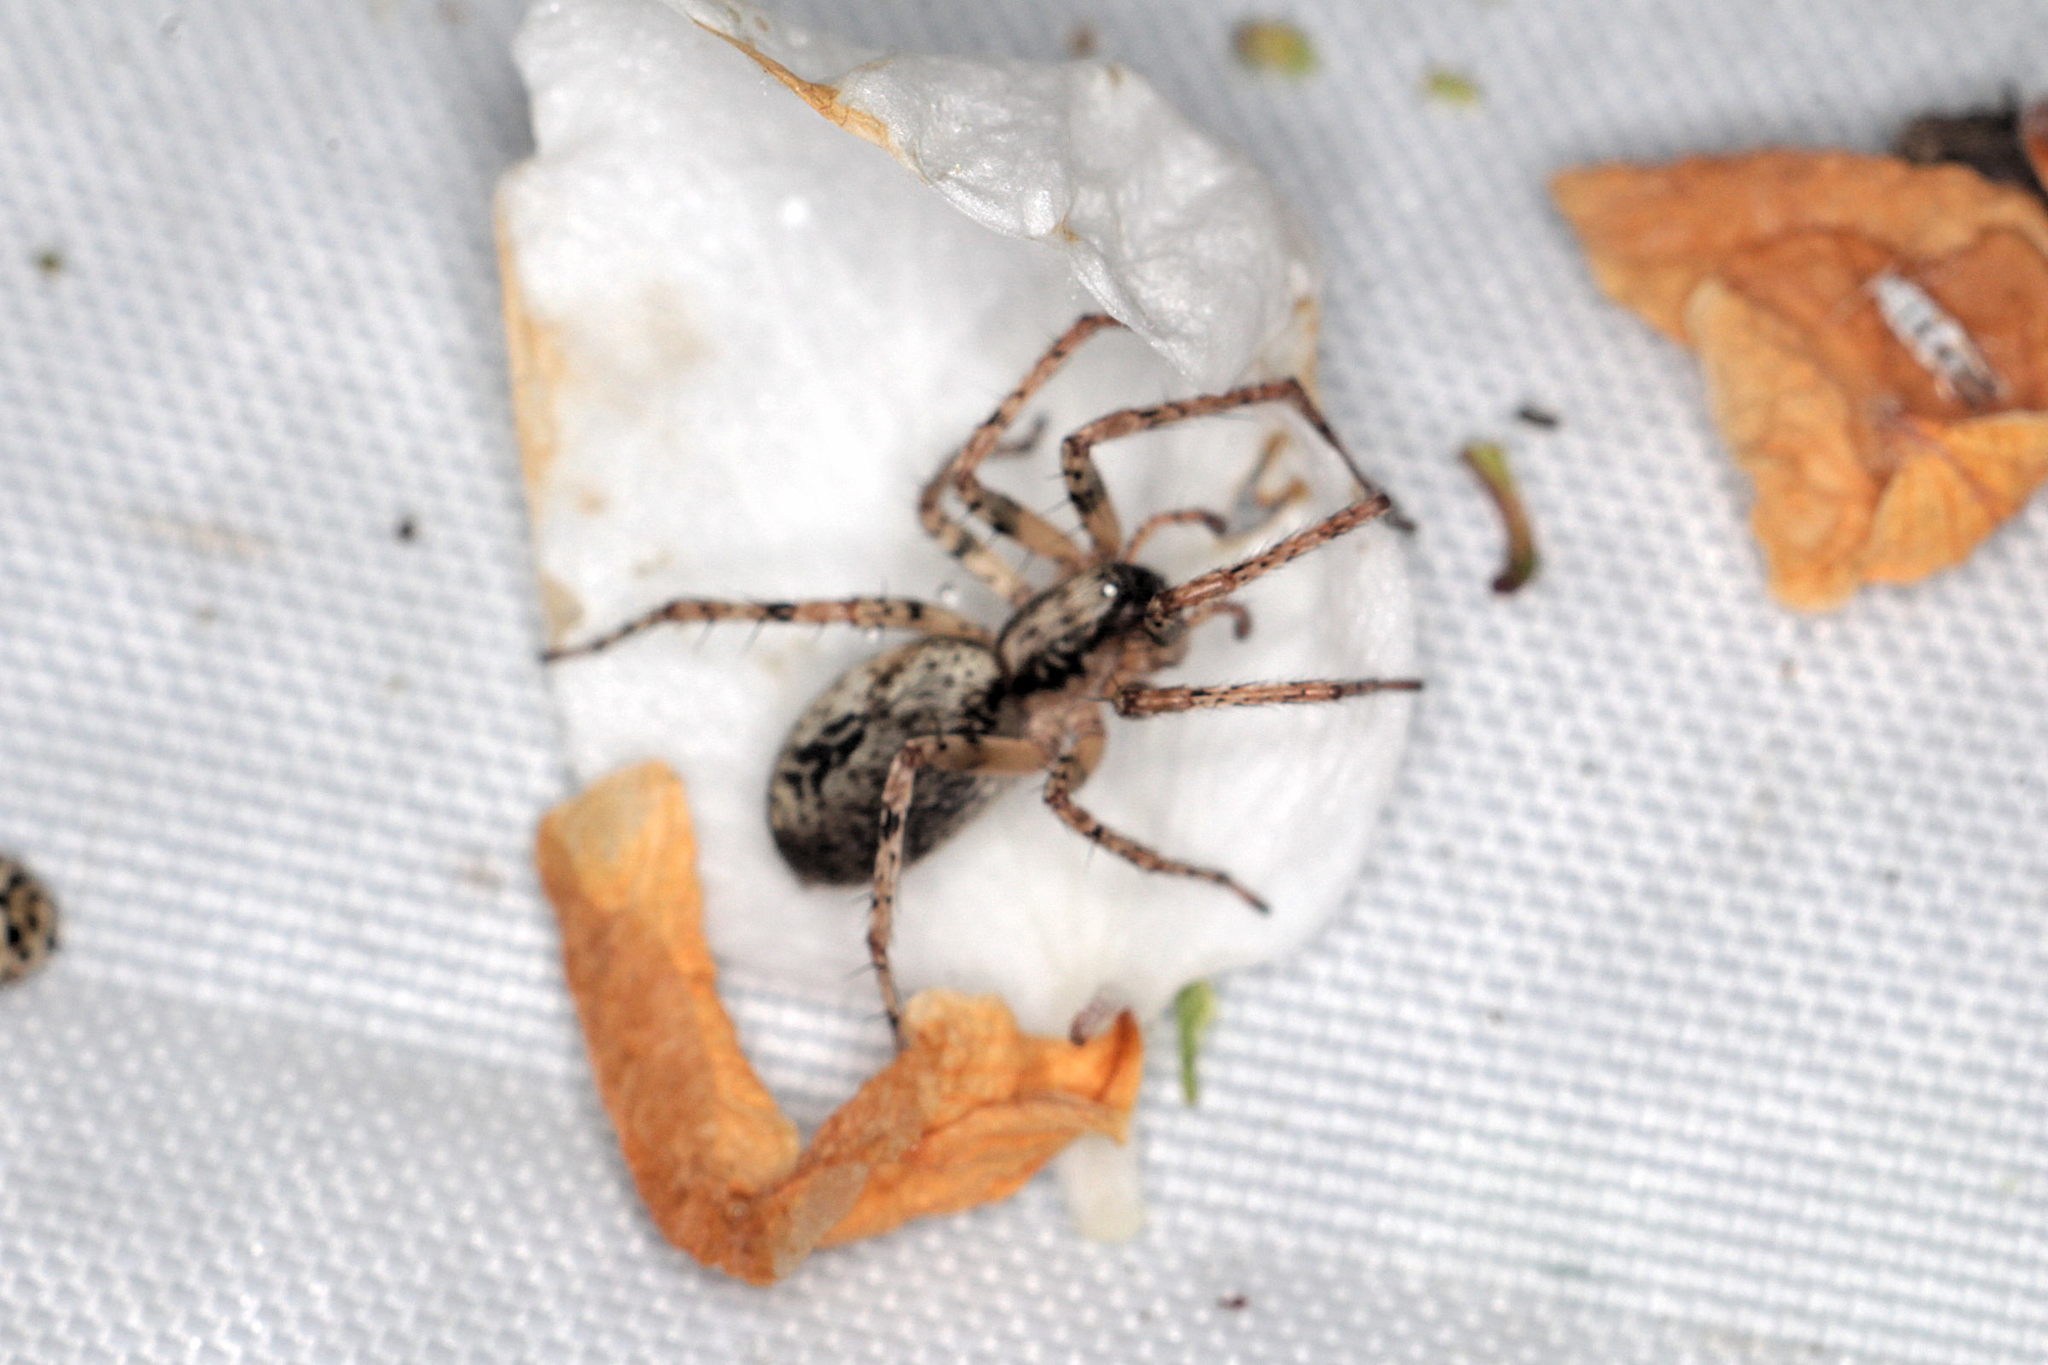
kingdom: Animalia
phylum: Arthropoda
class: Arachnida
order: Araneae
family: Anyphaenidae
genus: Anyphaena
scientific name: Anyphaena accentuata
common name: Buzzing spider
